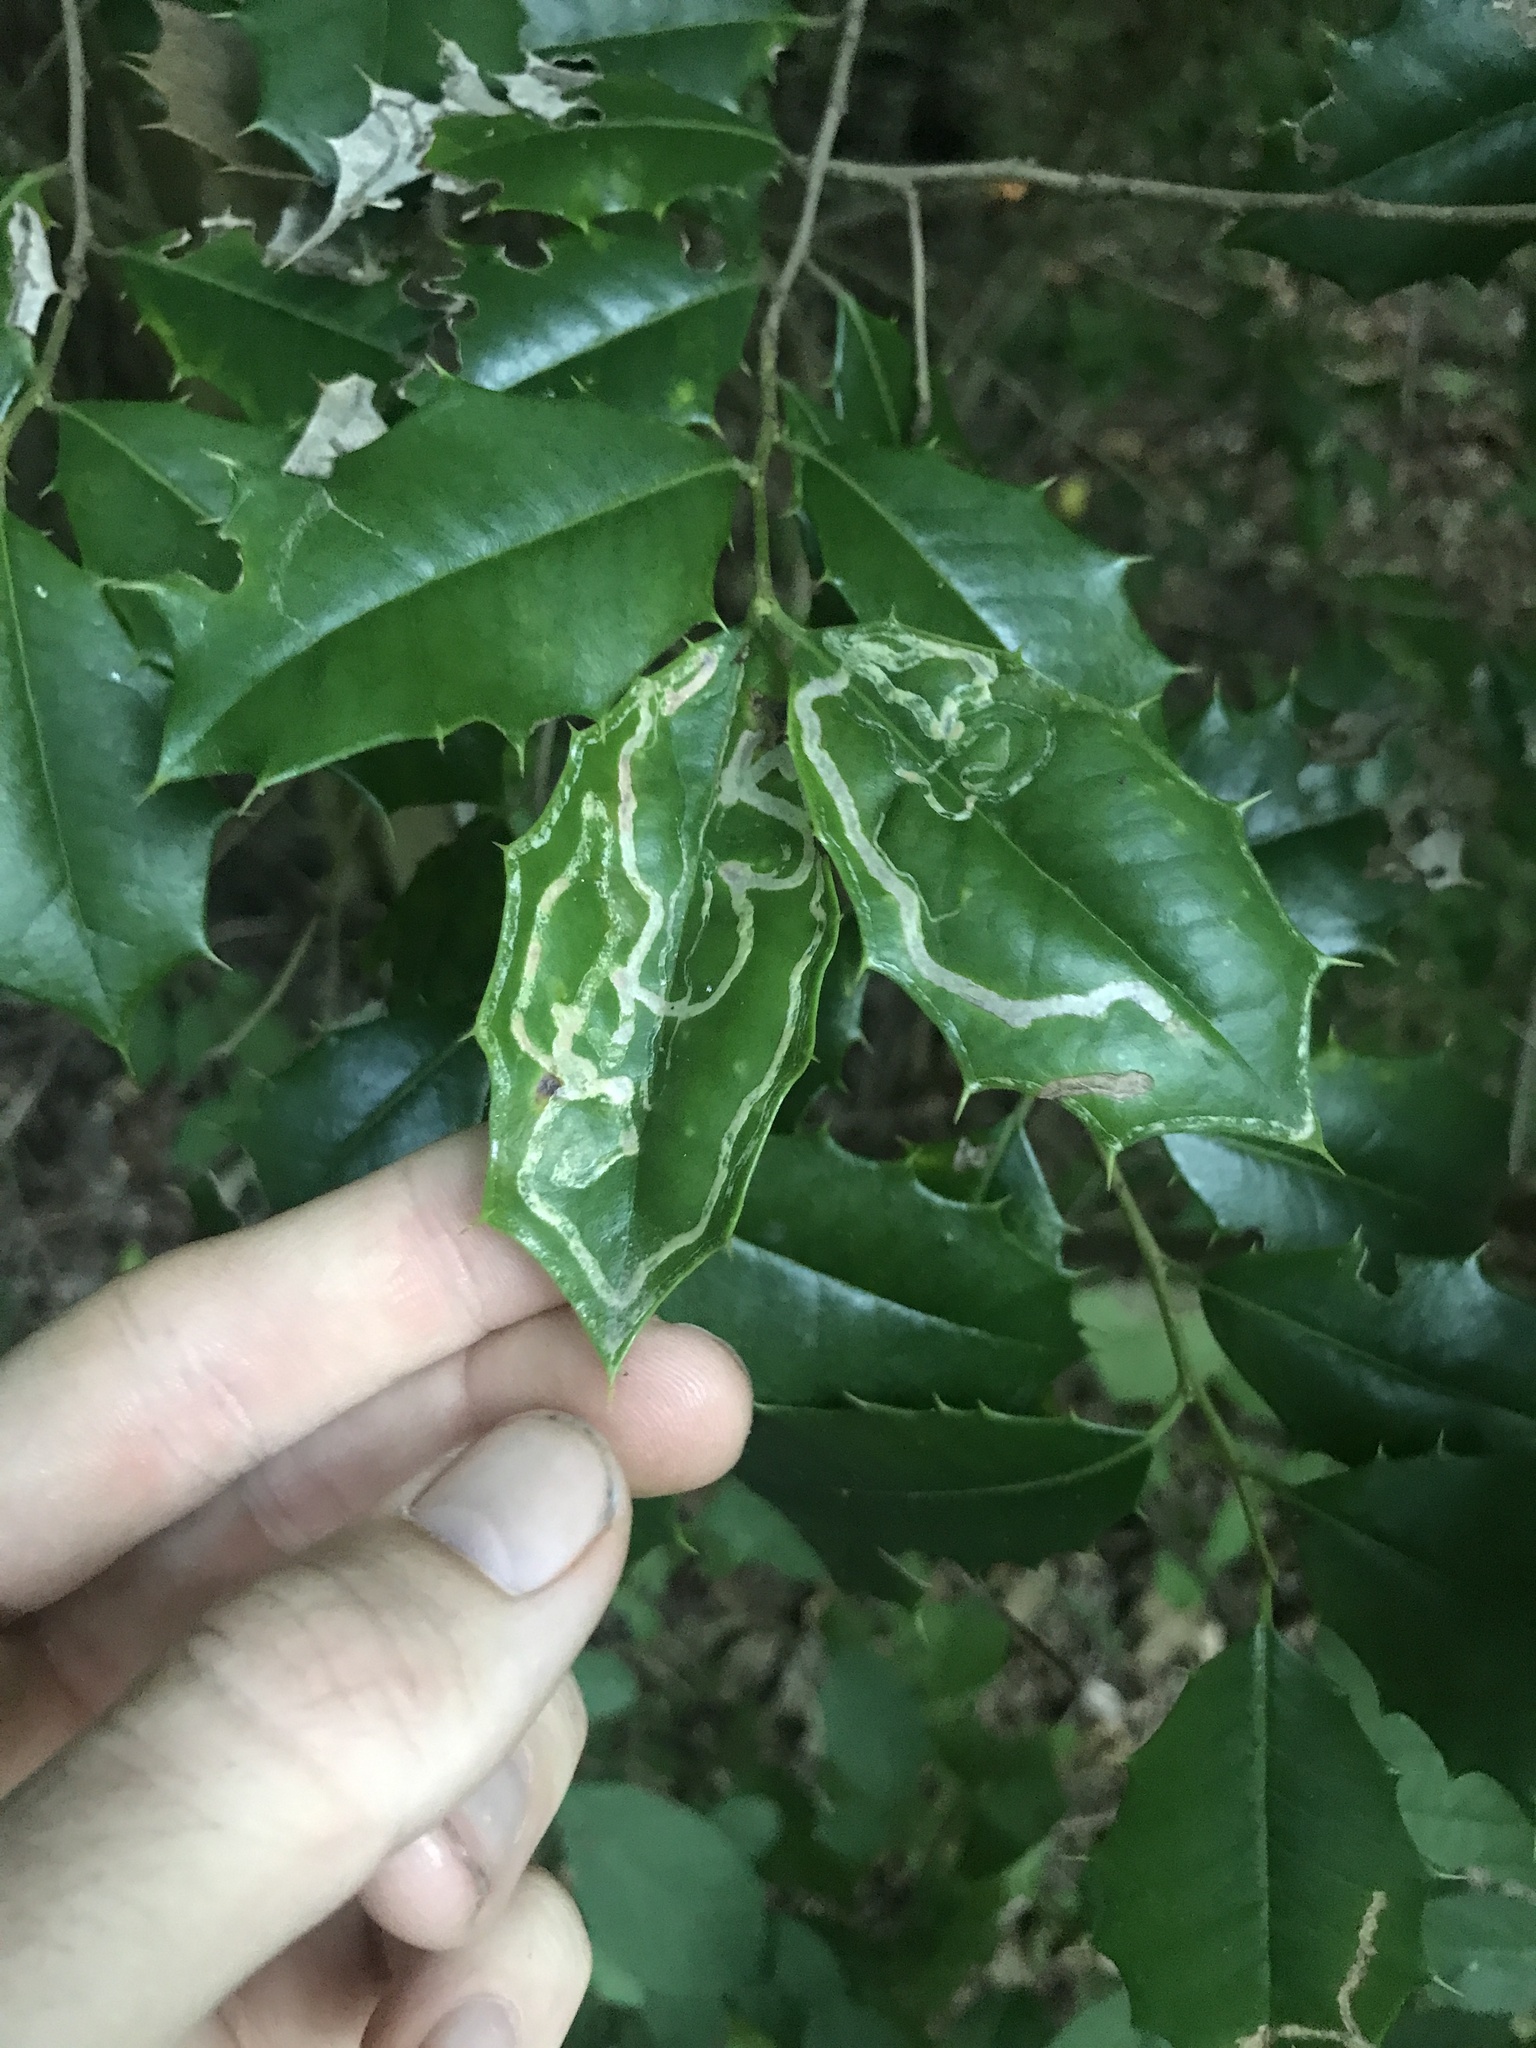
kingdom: Animalia
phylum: Arthropoda
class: Insecta
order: Diptera
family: Agromyzidae
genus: Phytomyza
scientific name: Phytomyza opacae
